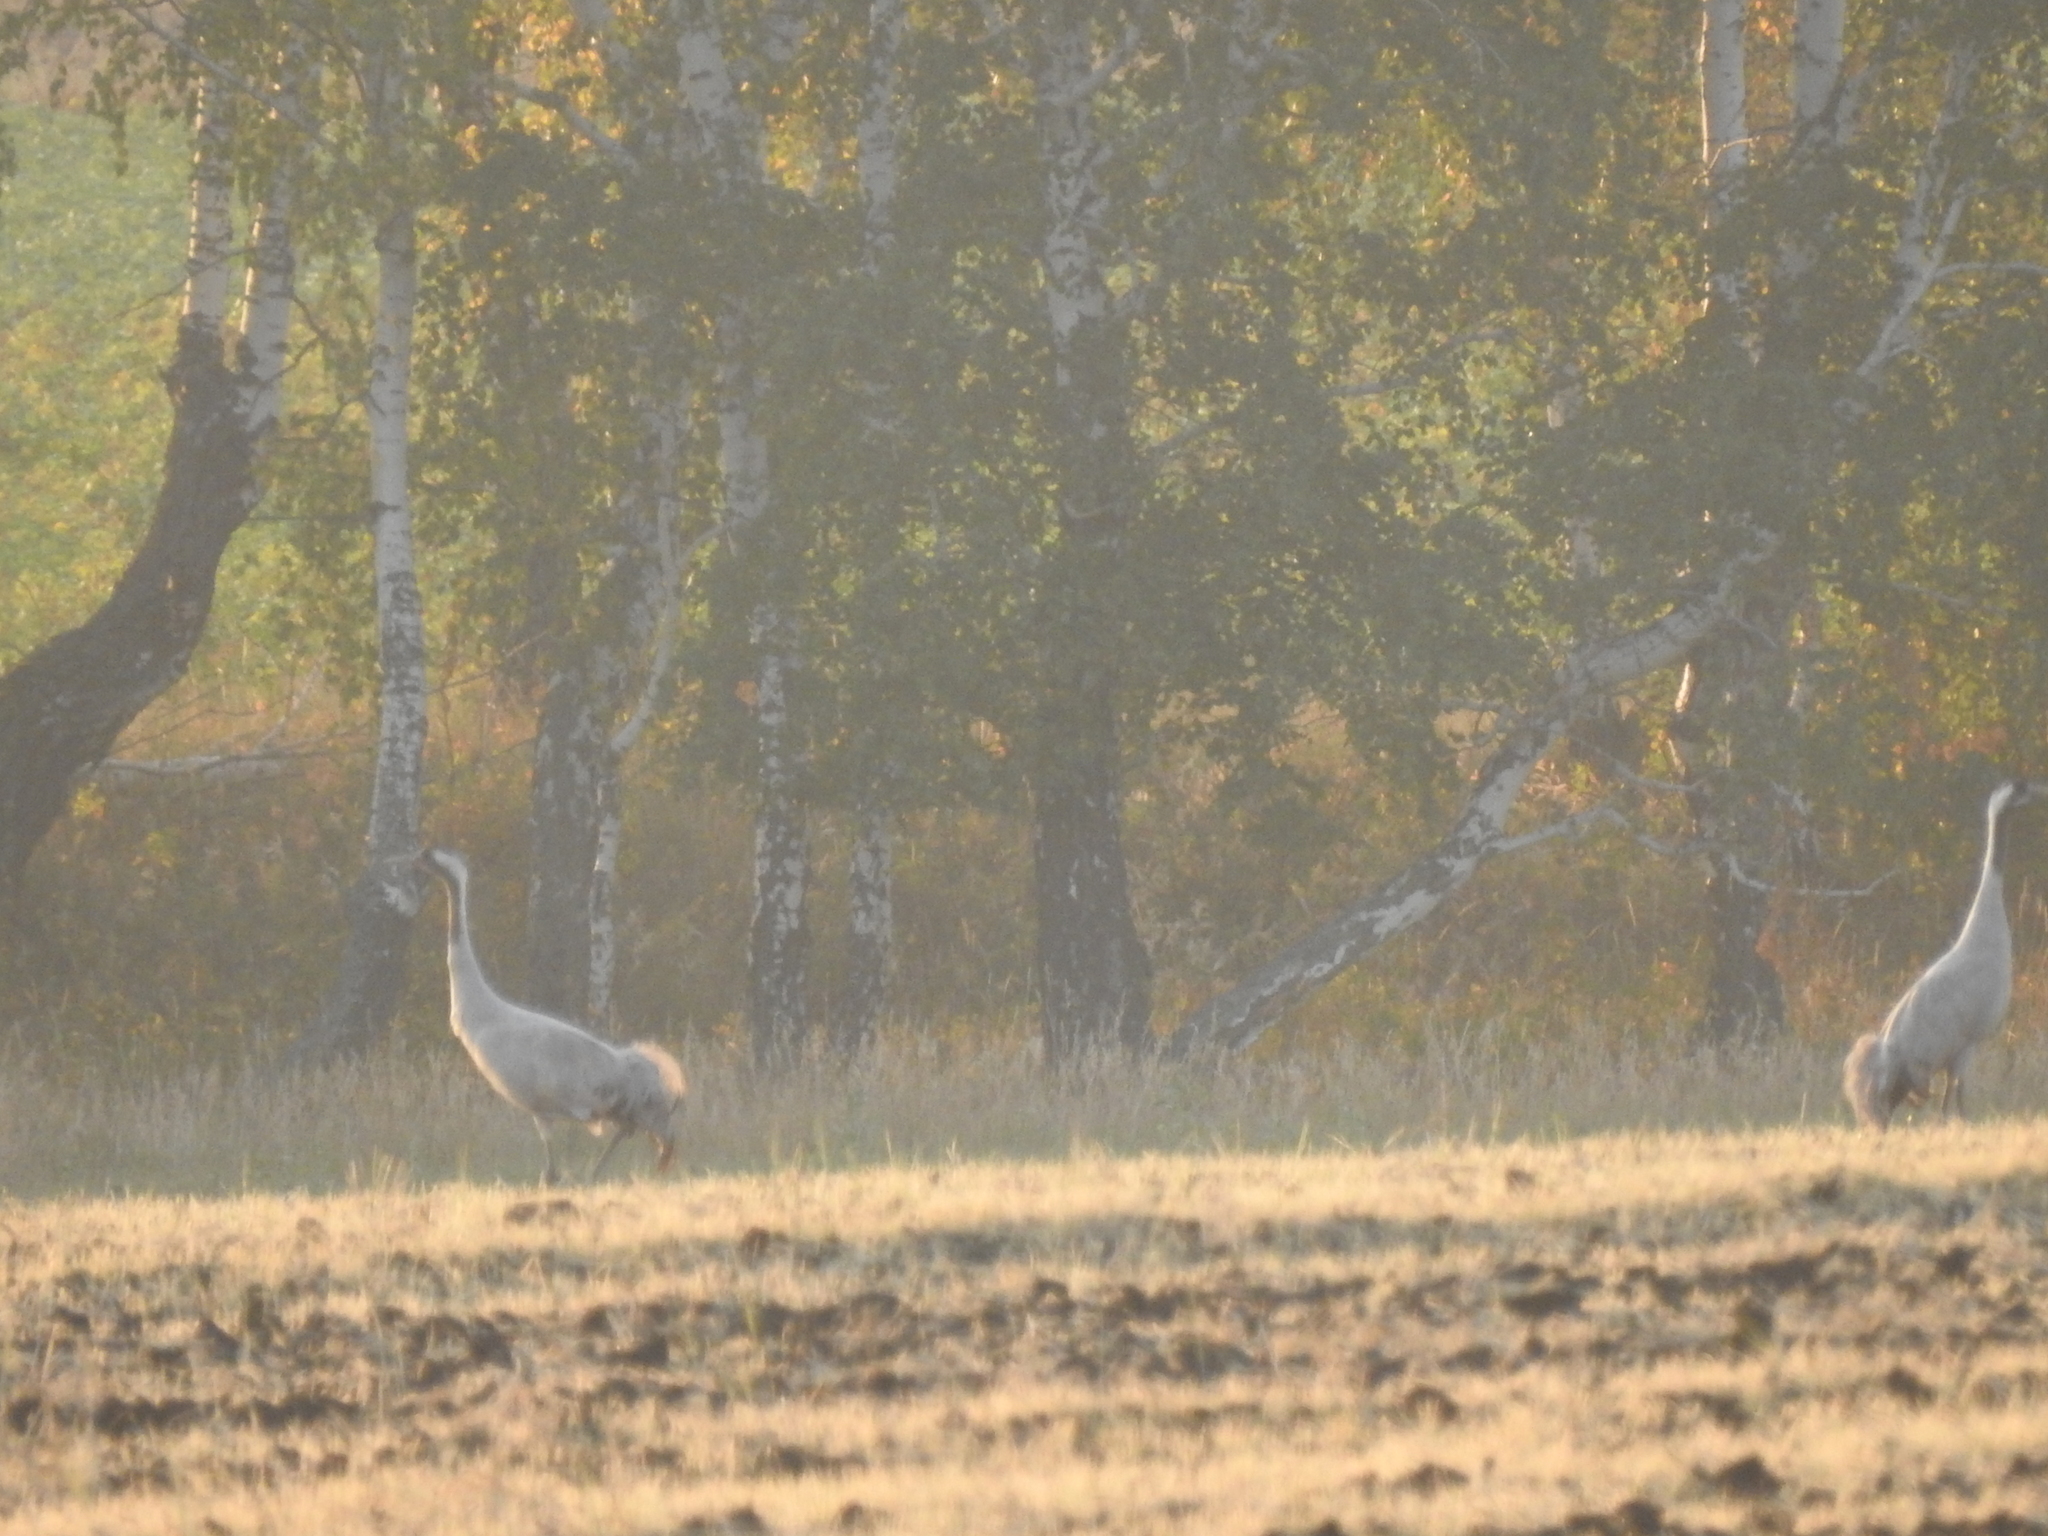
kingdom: Animalia
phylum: Chordata
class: Aves
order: Gruiformes
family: Gruidae
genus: Grus
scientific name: Grus grus
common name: Common crane
